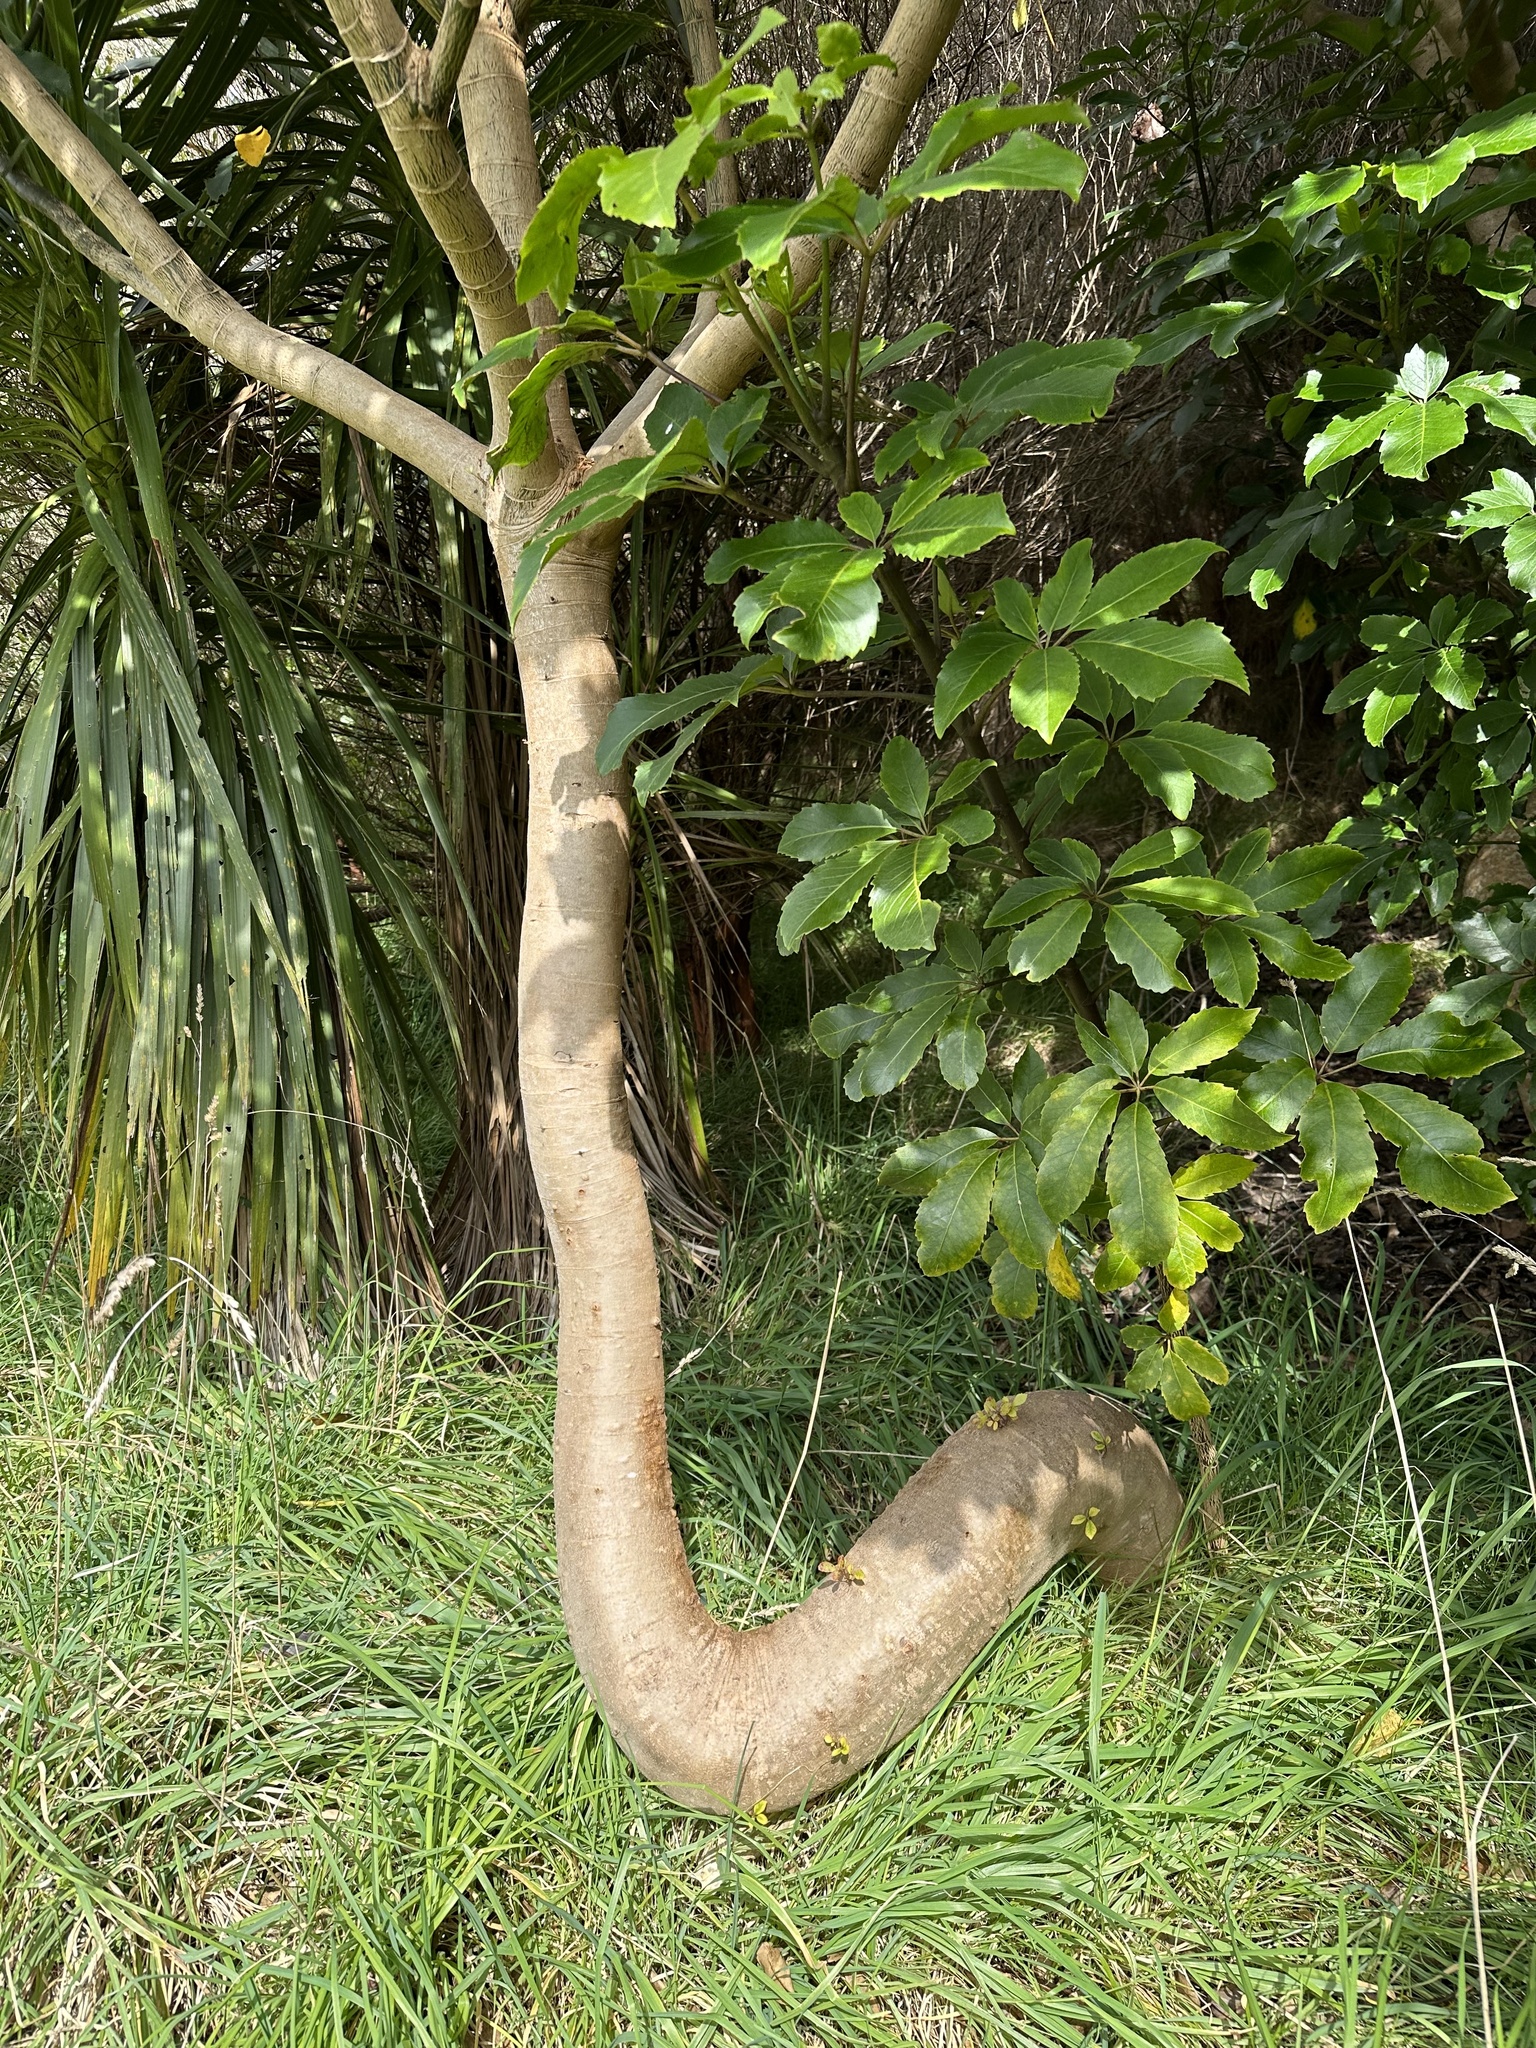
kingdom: Plantae
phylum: Tracheophyta
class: Magnoliopsida
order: Apiales
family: Araliaceae
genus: Neopanax
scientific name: Neopanax arboreus
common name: Five-fingers
